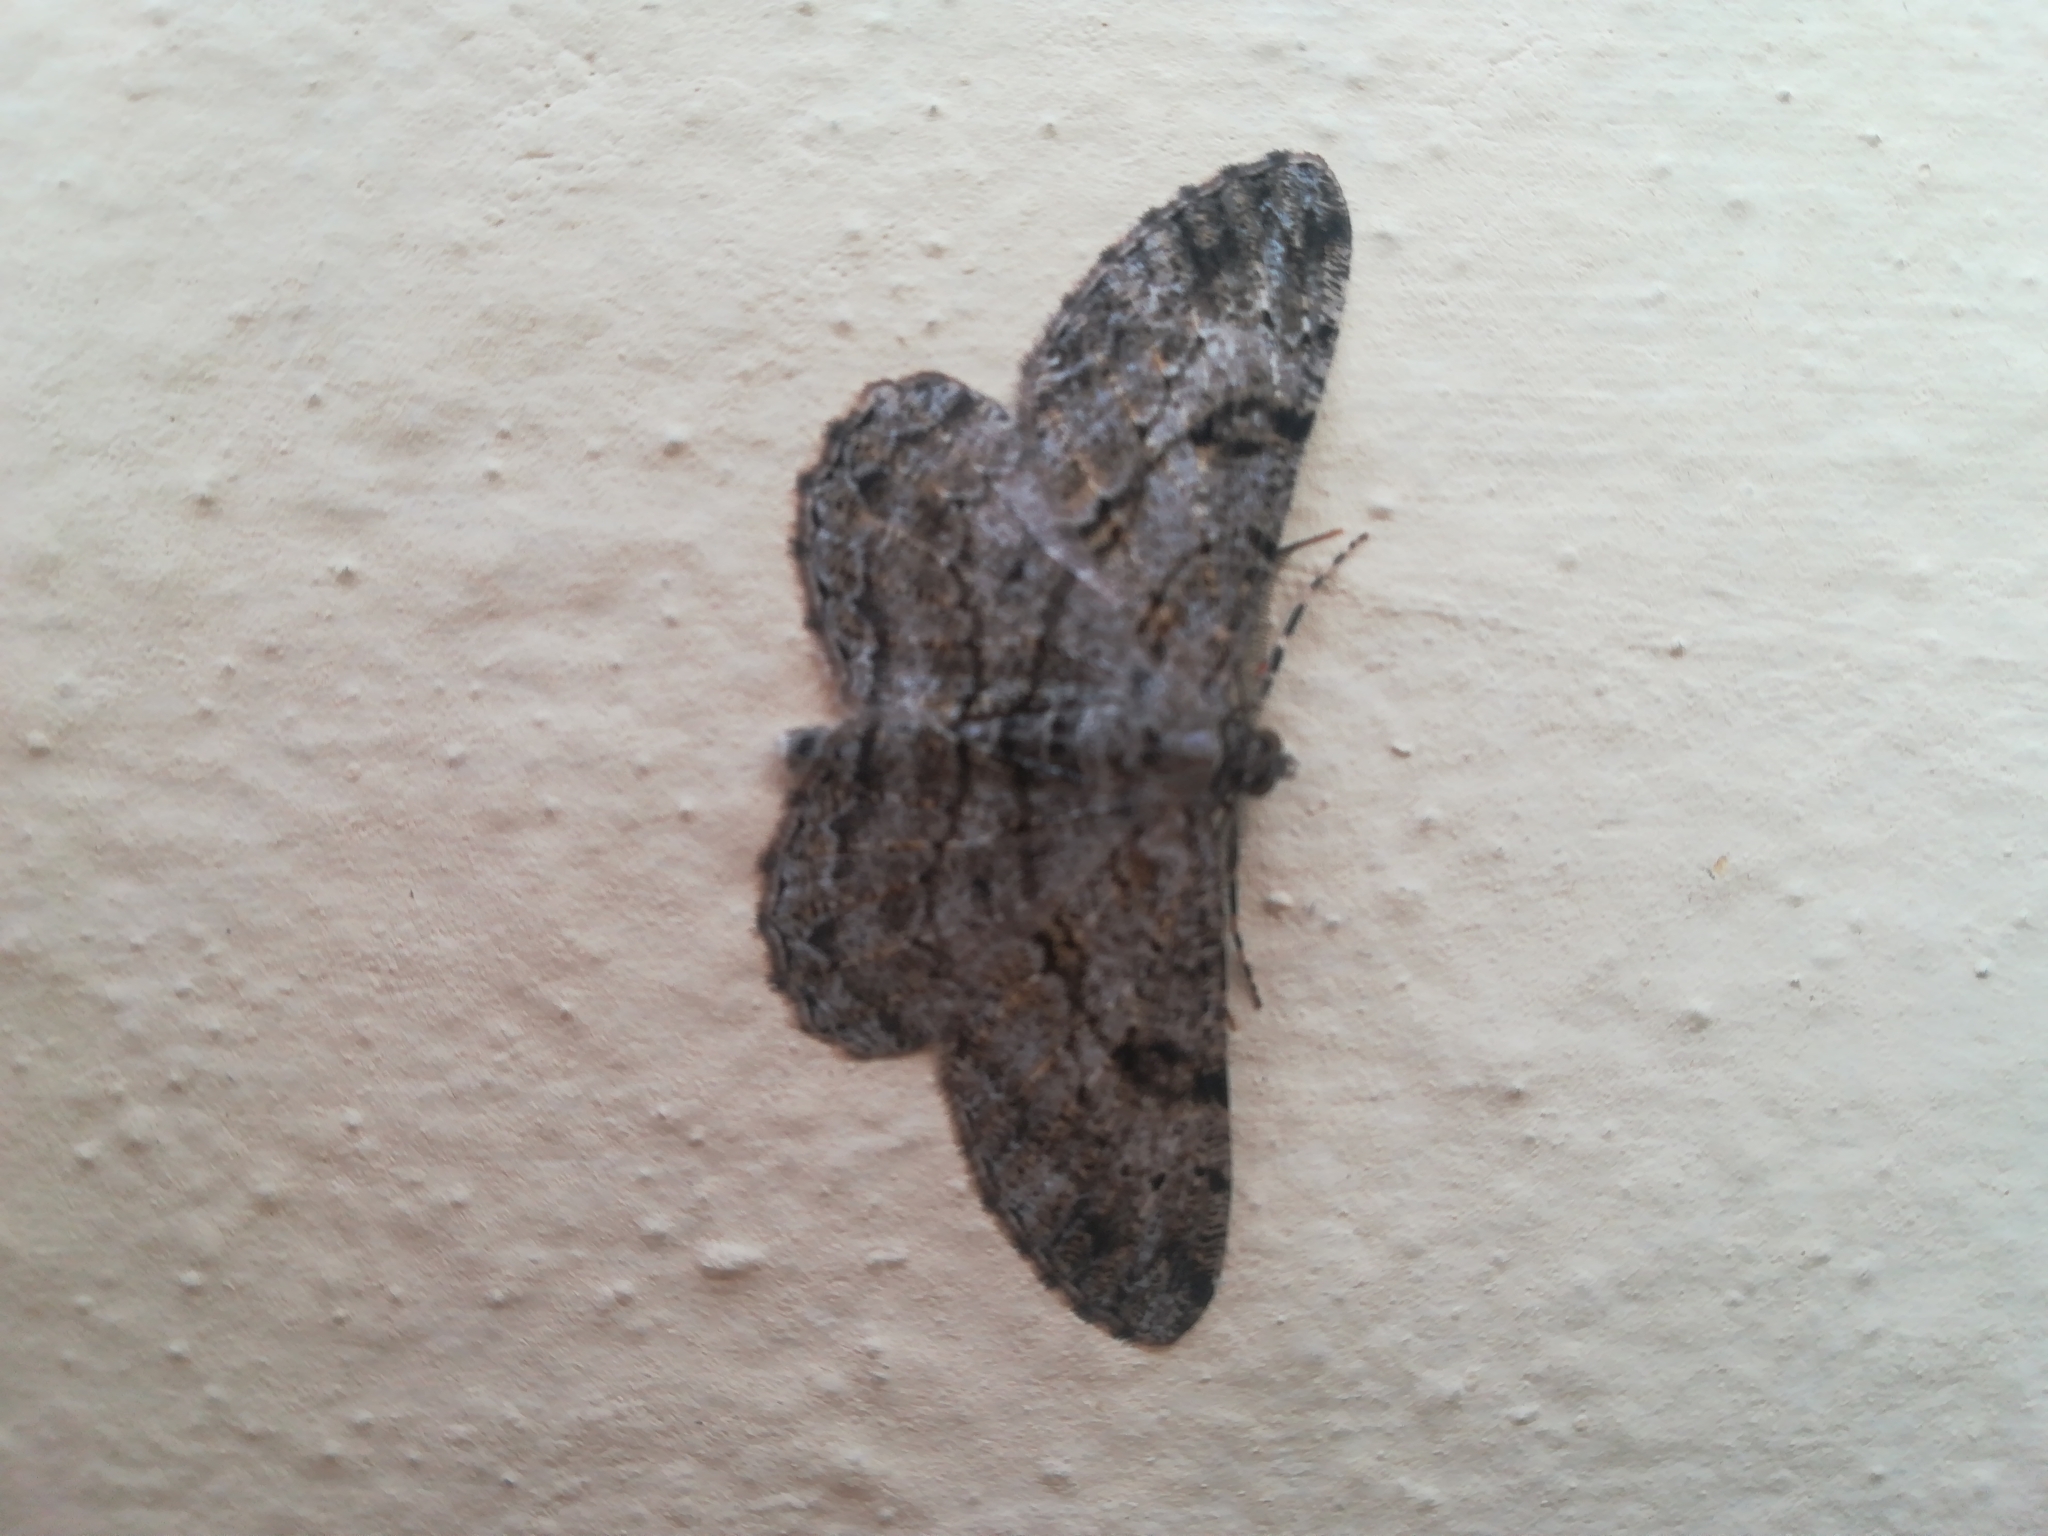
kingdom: Animalia
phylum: Arthropoda
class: Insecta
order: Lepidoptera
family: Geometridae
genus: Peribatodes
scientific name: Peribatodes rhomboidaria
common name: Willow beauty
